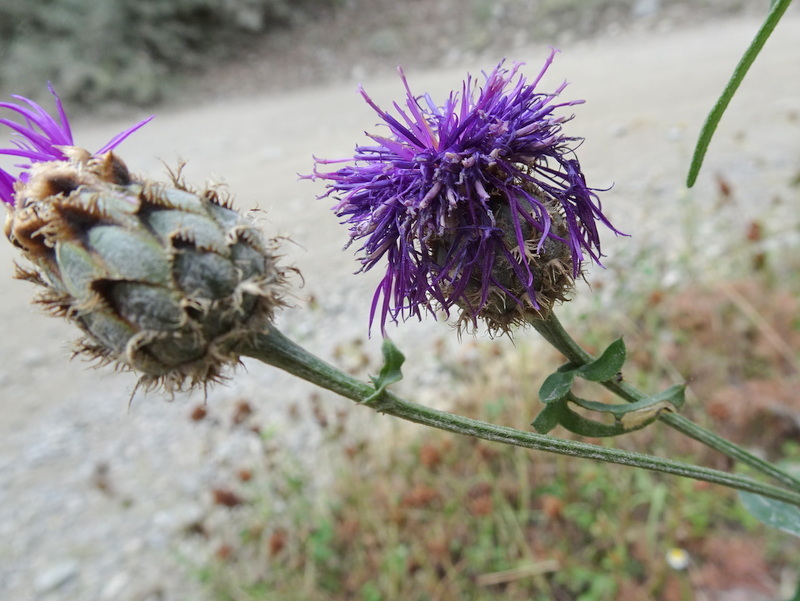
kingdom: Plantae
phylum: Tracheophyta
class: Magnoliopsida
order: Asterales
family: Asteraceae
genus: Centaurea
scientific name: Centaurea scabiosa
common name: Greater knapweed
